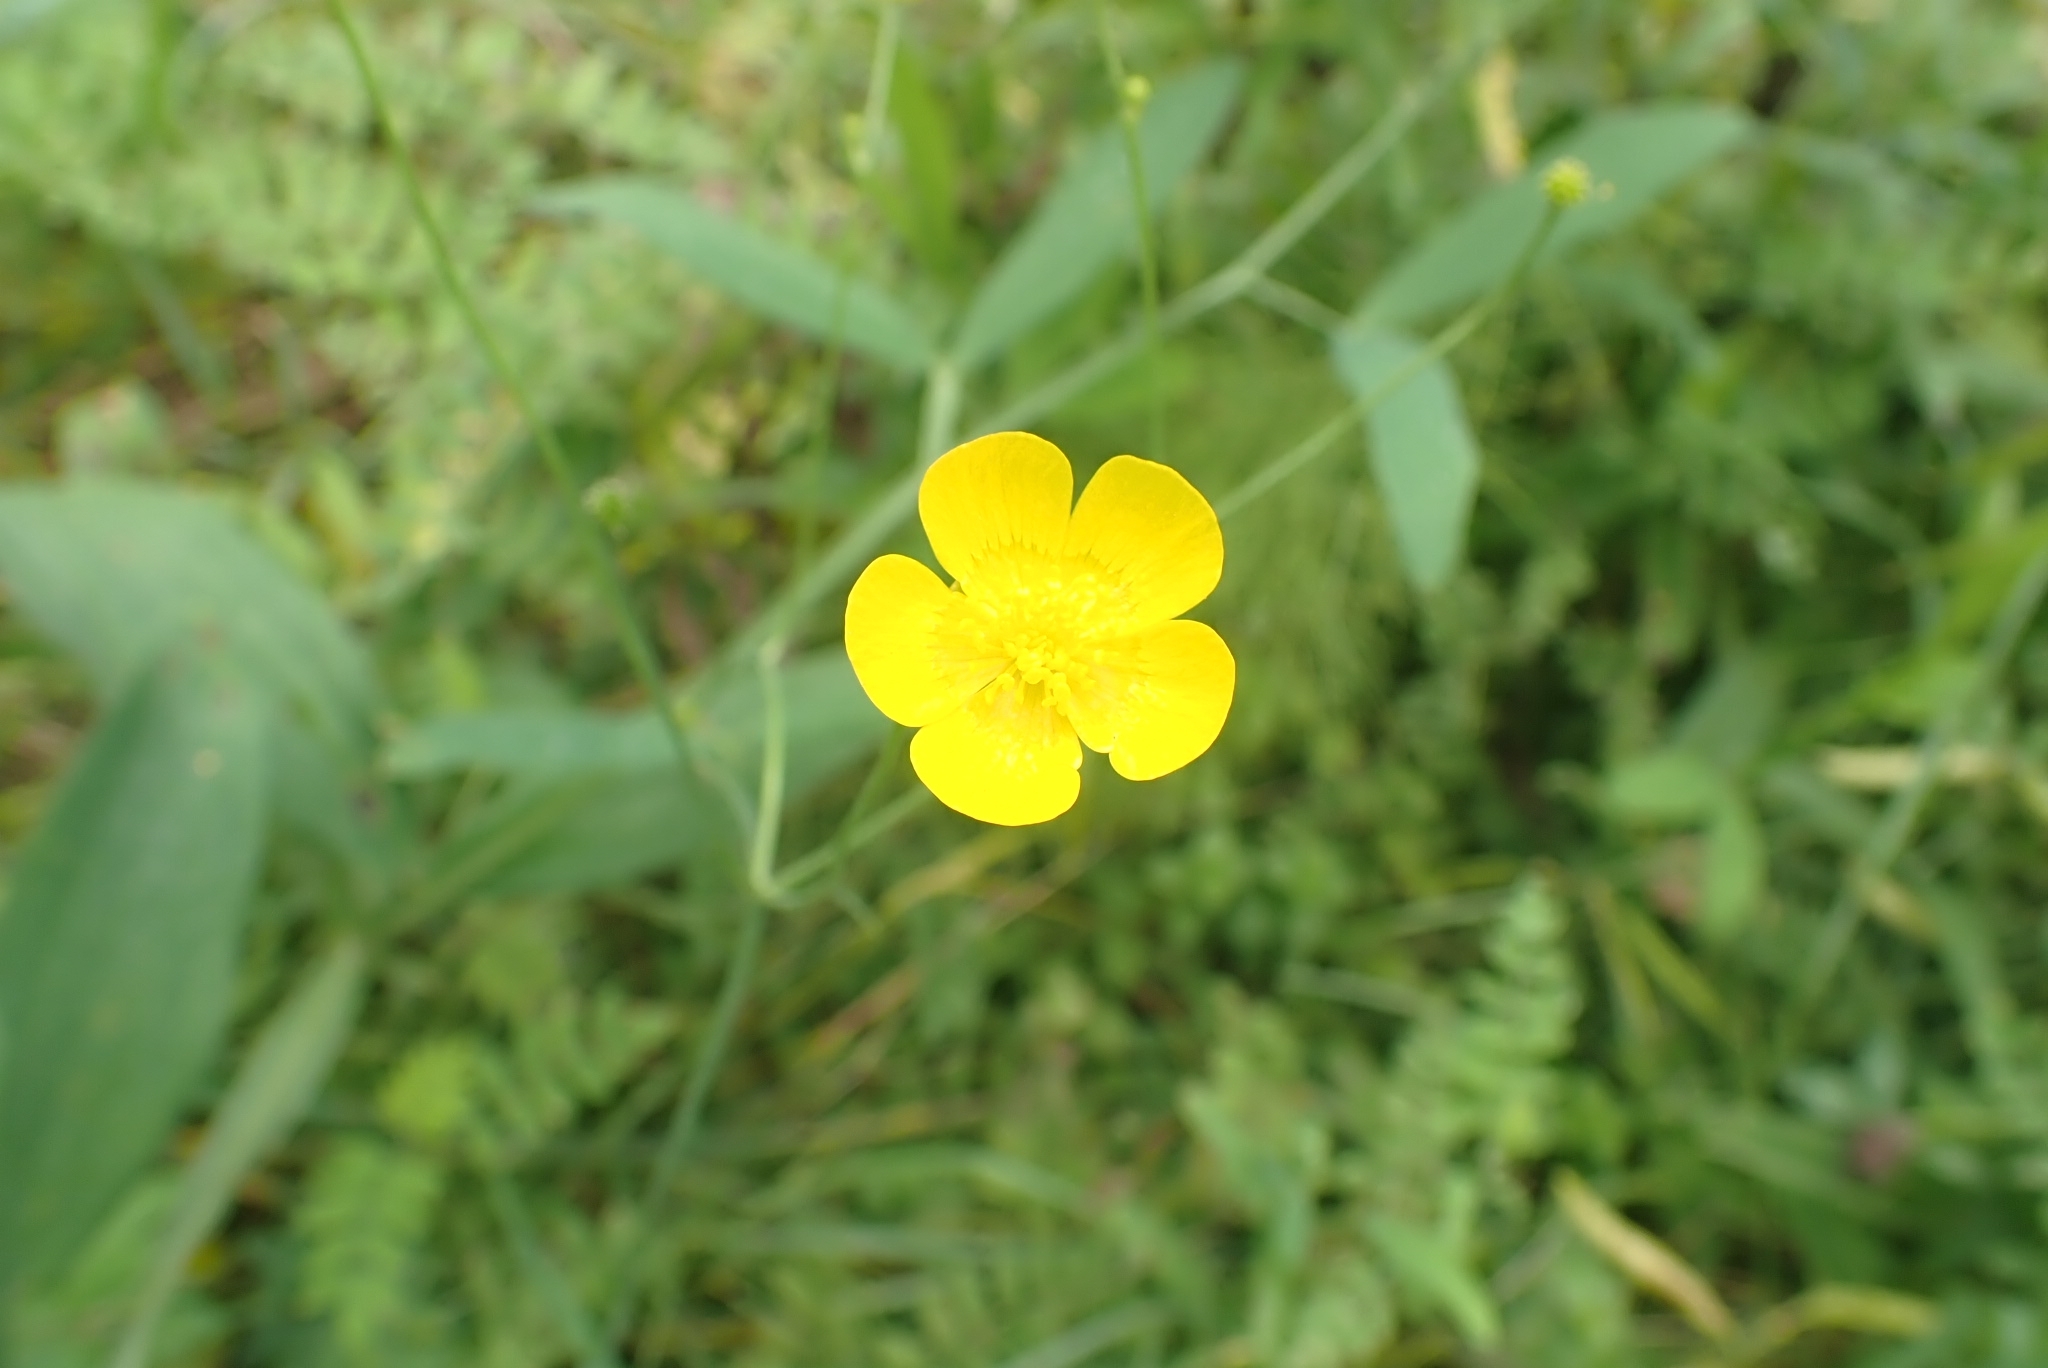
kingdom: Plantae
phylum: Tracheophyta
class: Magnoliopsida
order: Ranunculales
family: Ranunculaceae
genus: Ranunculus
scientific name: Ranunculus acris
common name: Meadow buttercup
